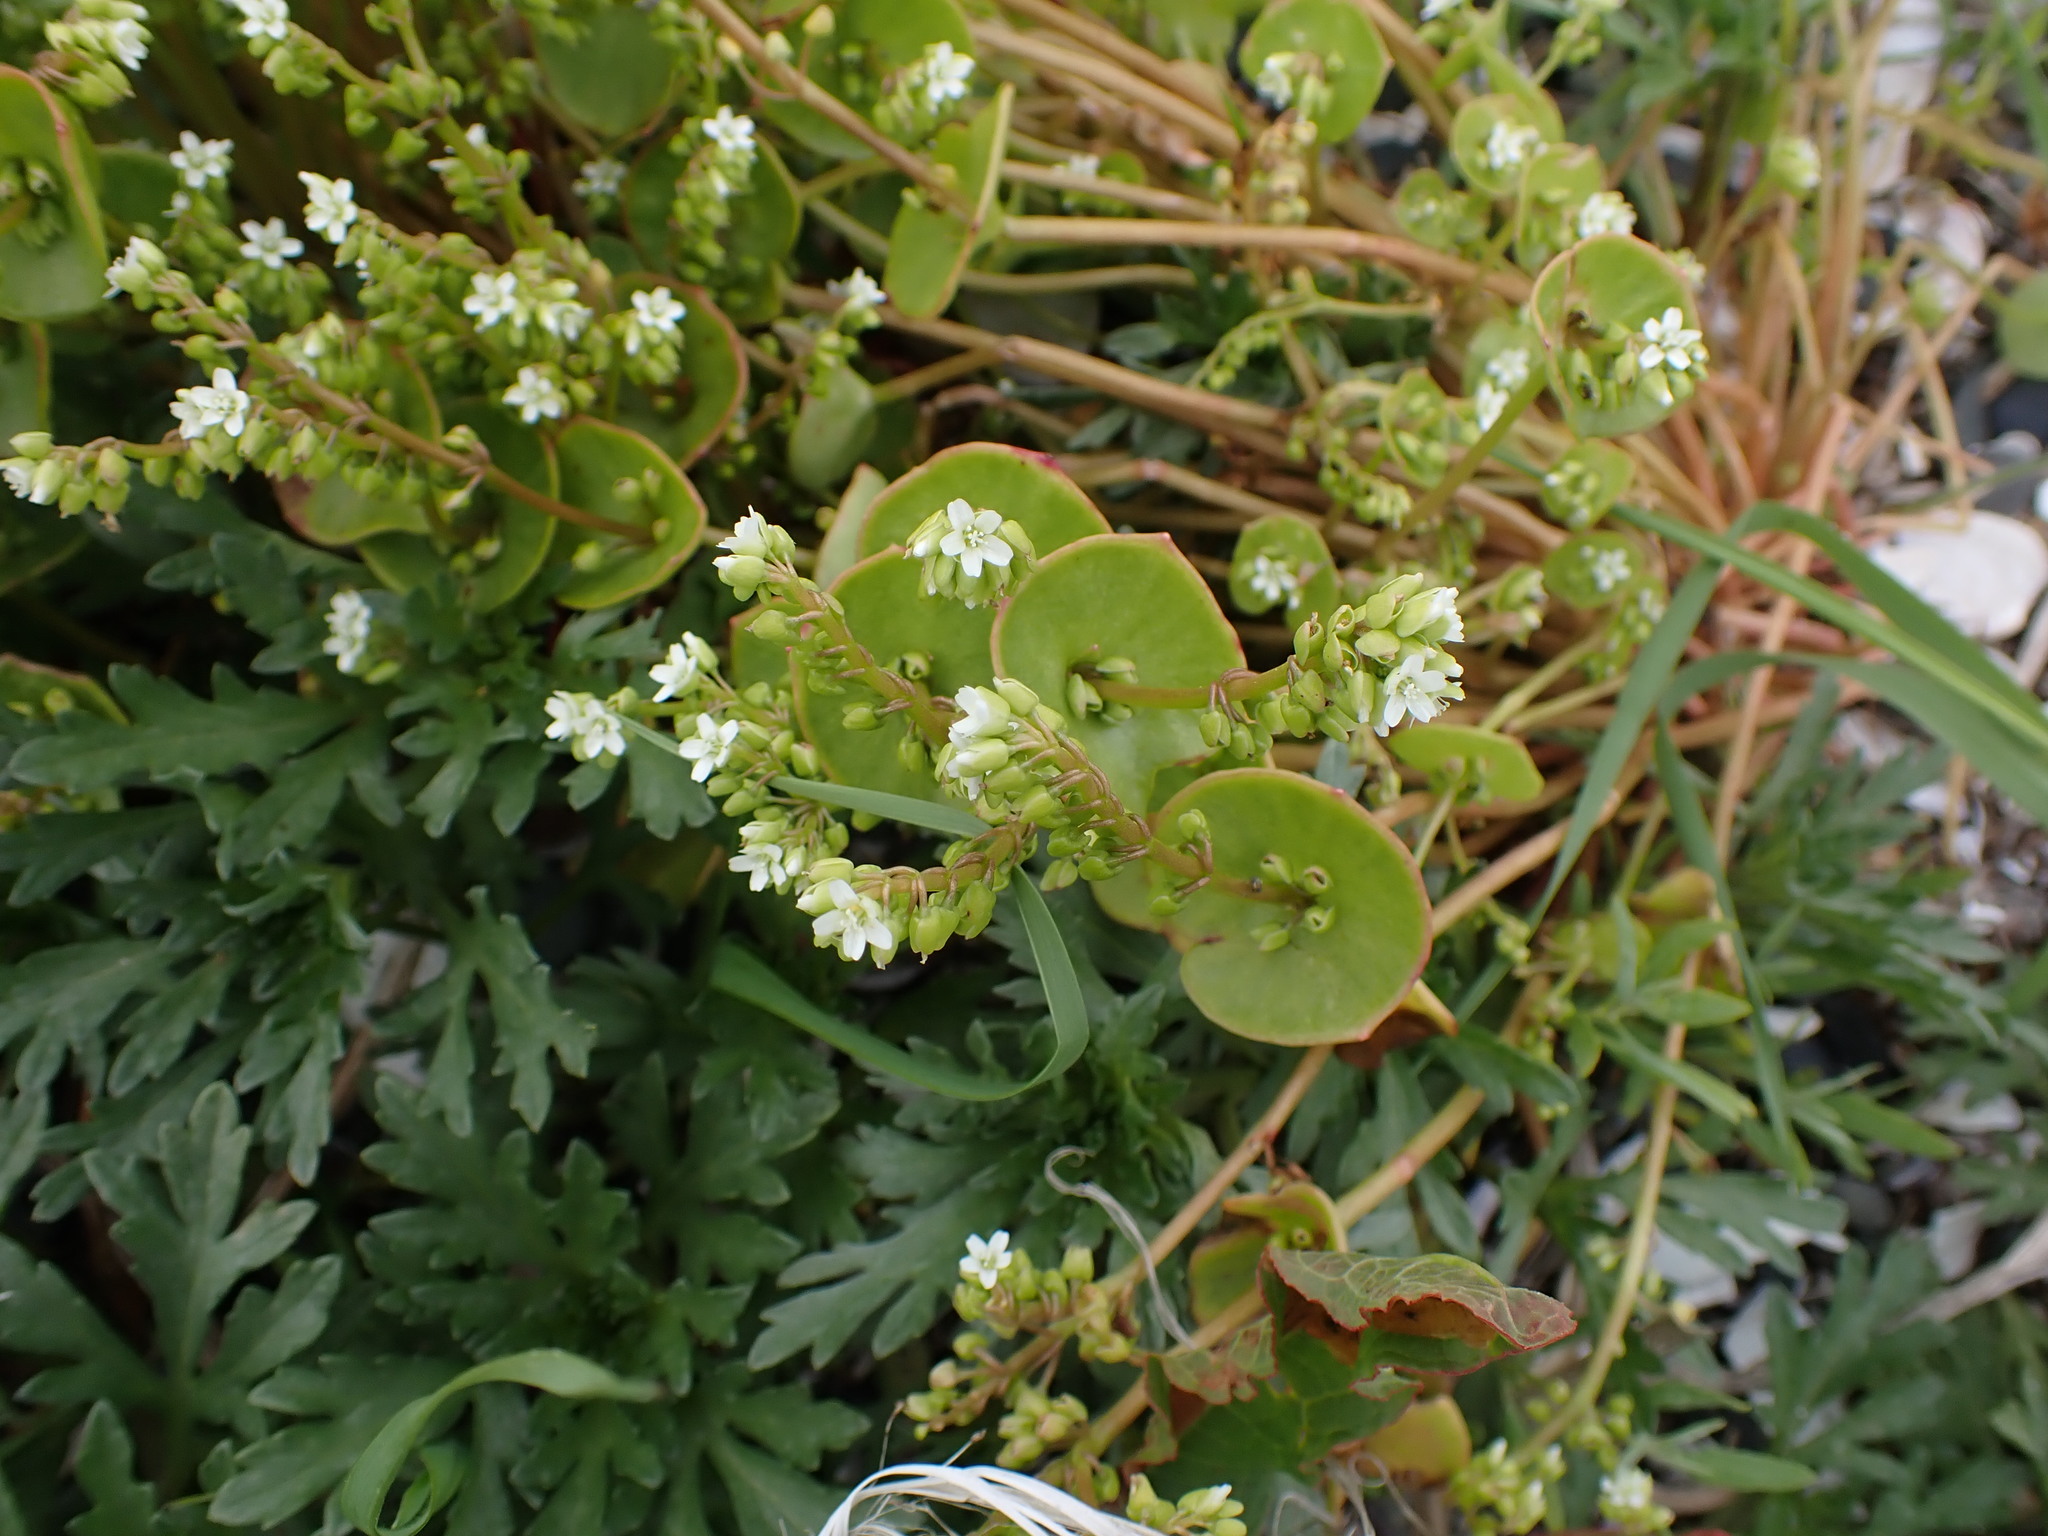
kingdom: Plantae
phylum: Tracheophyta
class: Magnoliopsida
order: Caryophyllales
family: Montiaceae
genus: Claytonia
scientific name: Claytonia perfoliata
